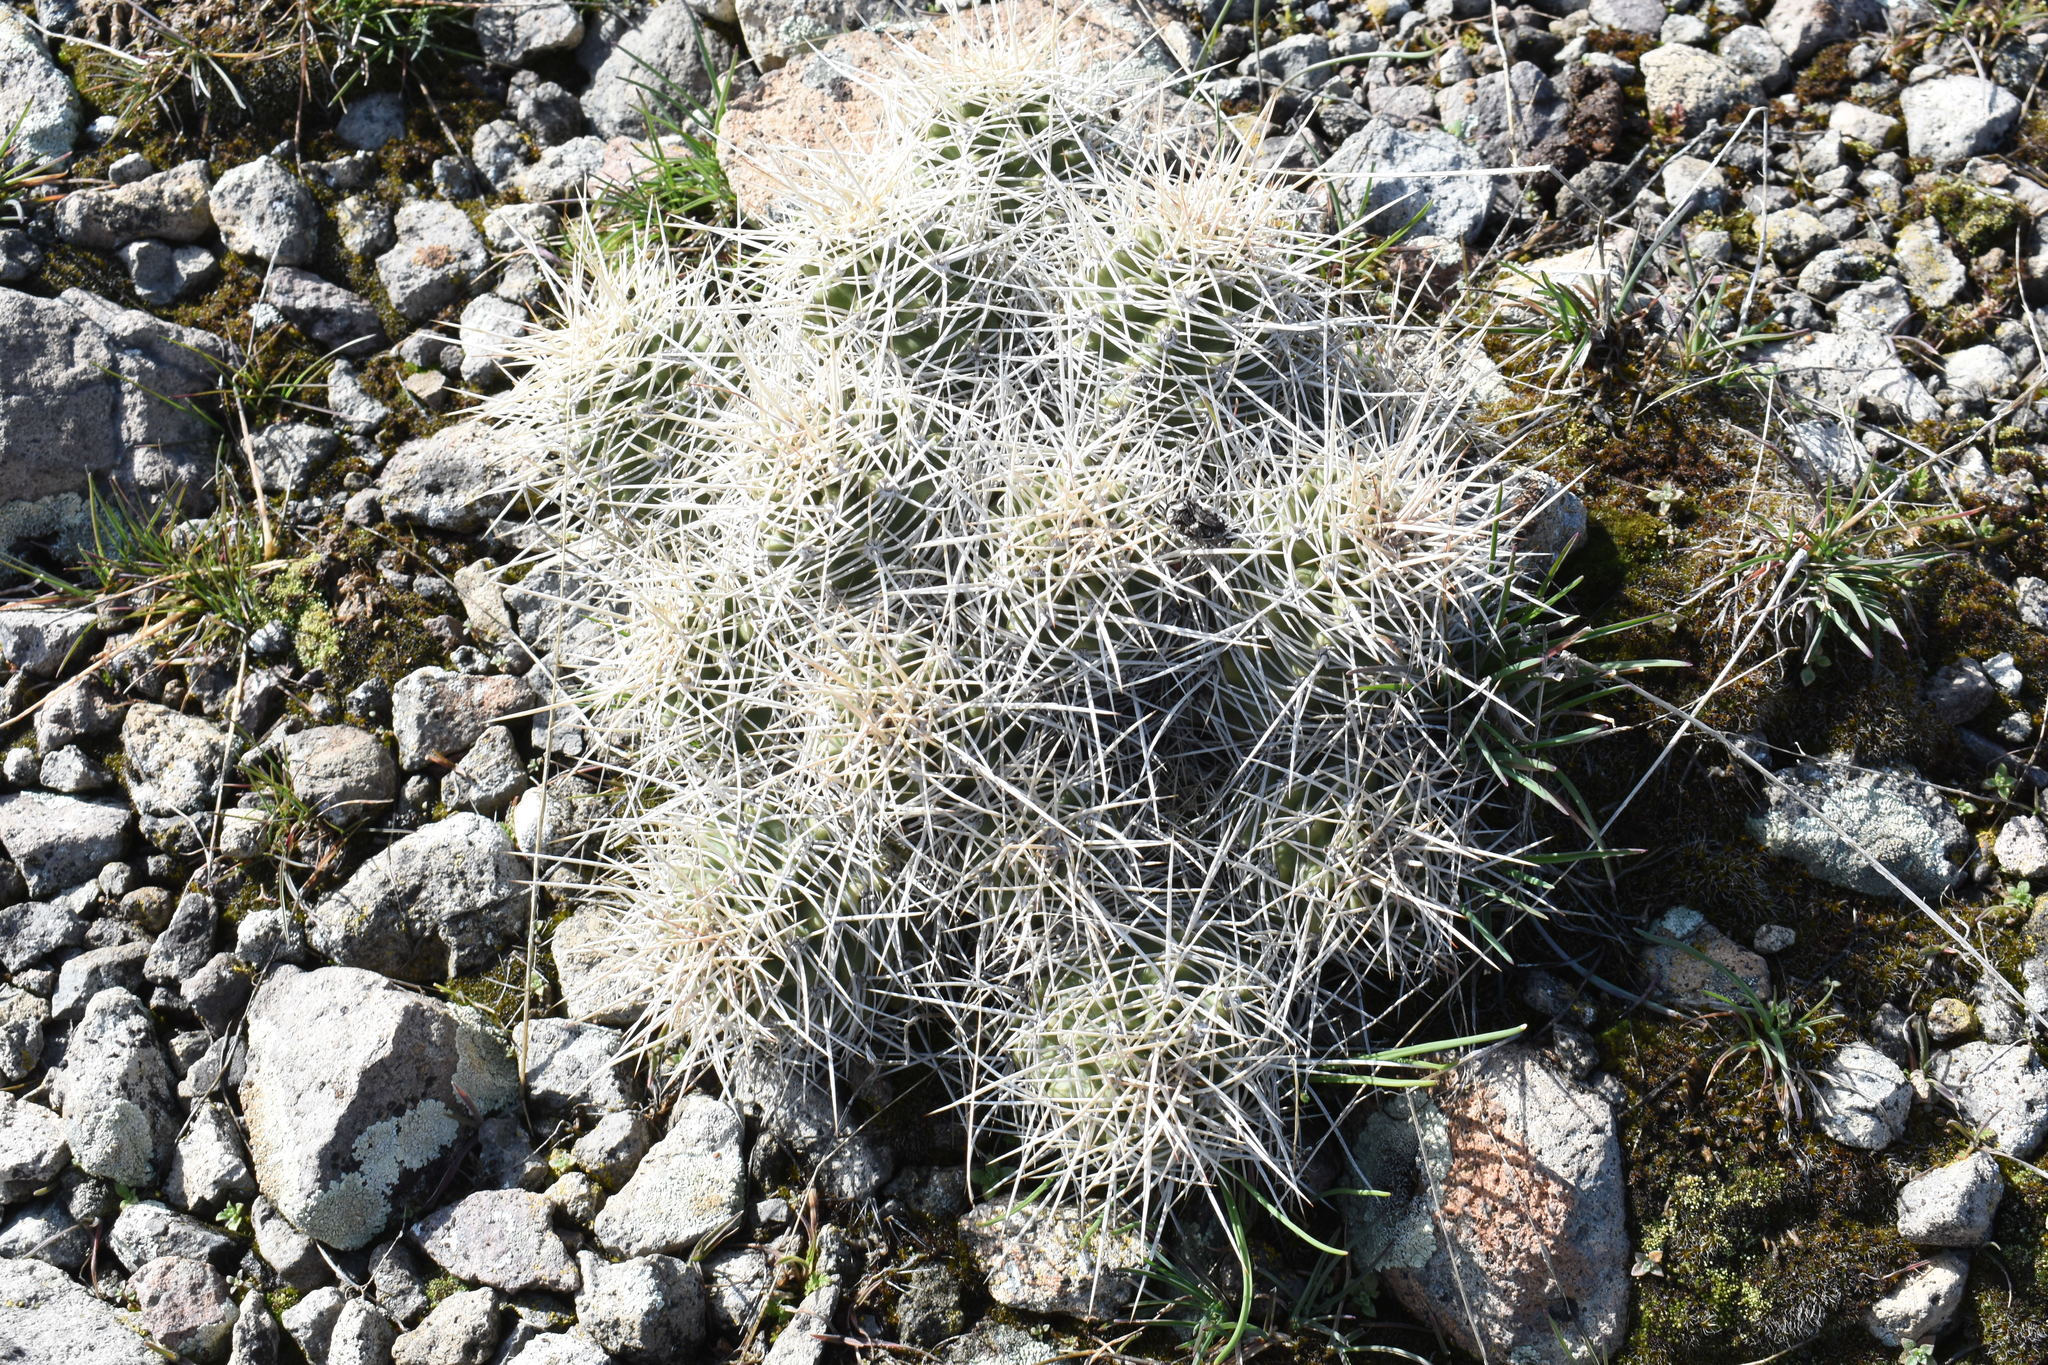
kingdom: Plantae
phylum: Tracheophyta
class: Magnoliopsida
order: Caryophyllales
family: Cactaceae
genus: Echinocereus
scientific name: Echinocereus triglochidiatus
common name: Claretcup hedgehog
